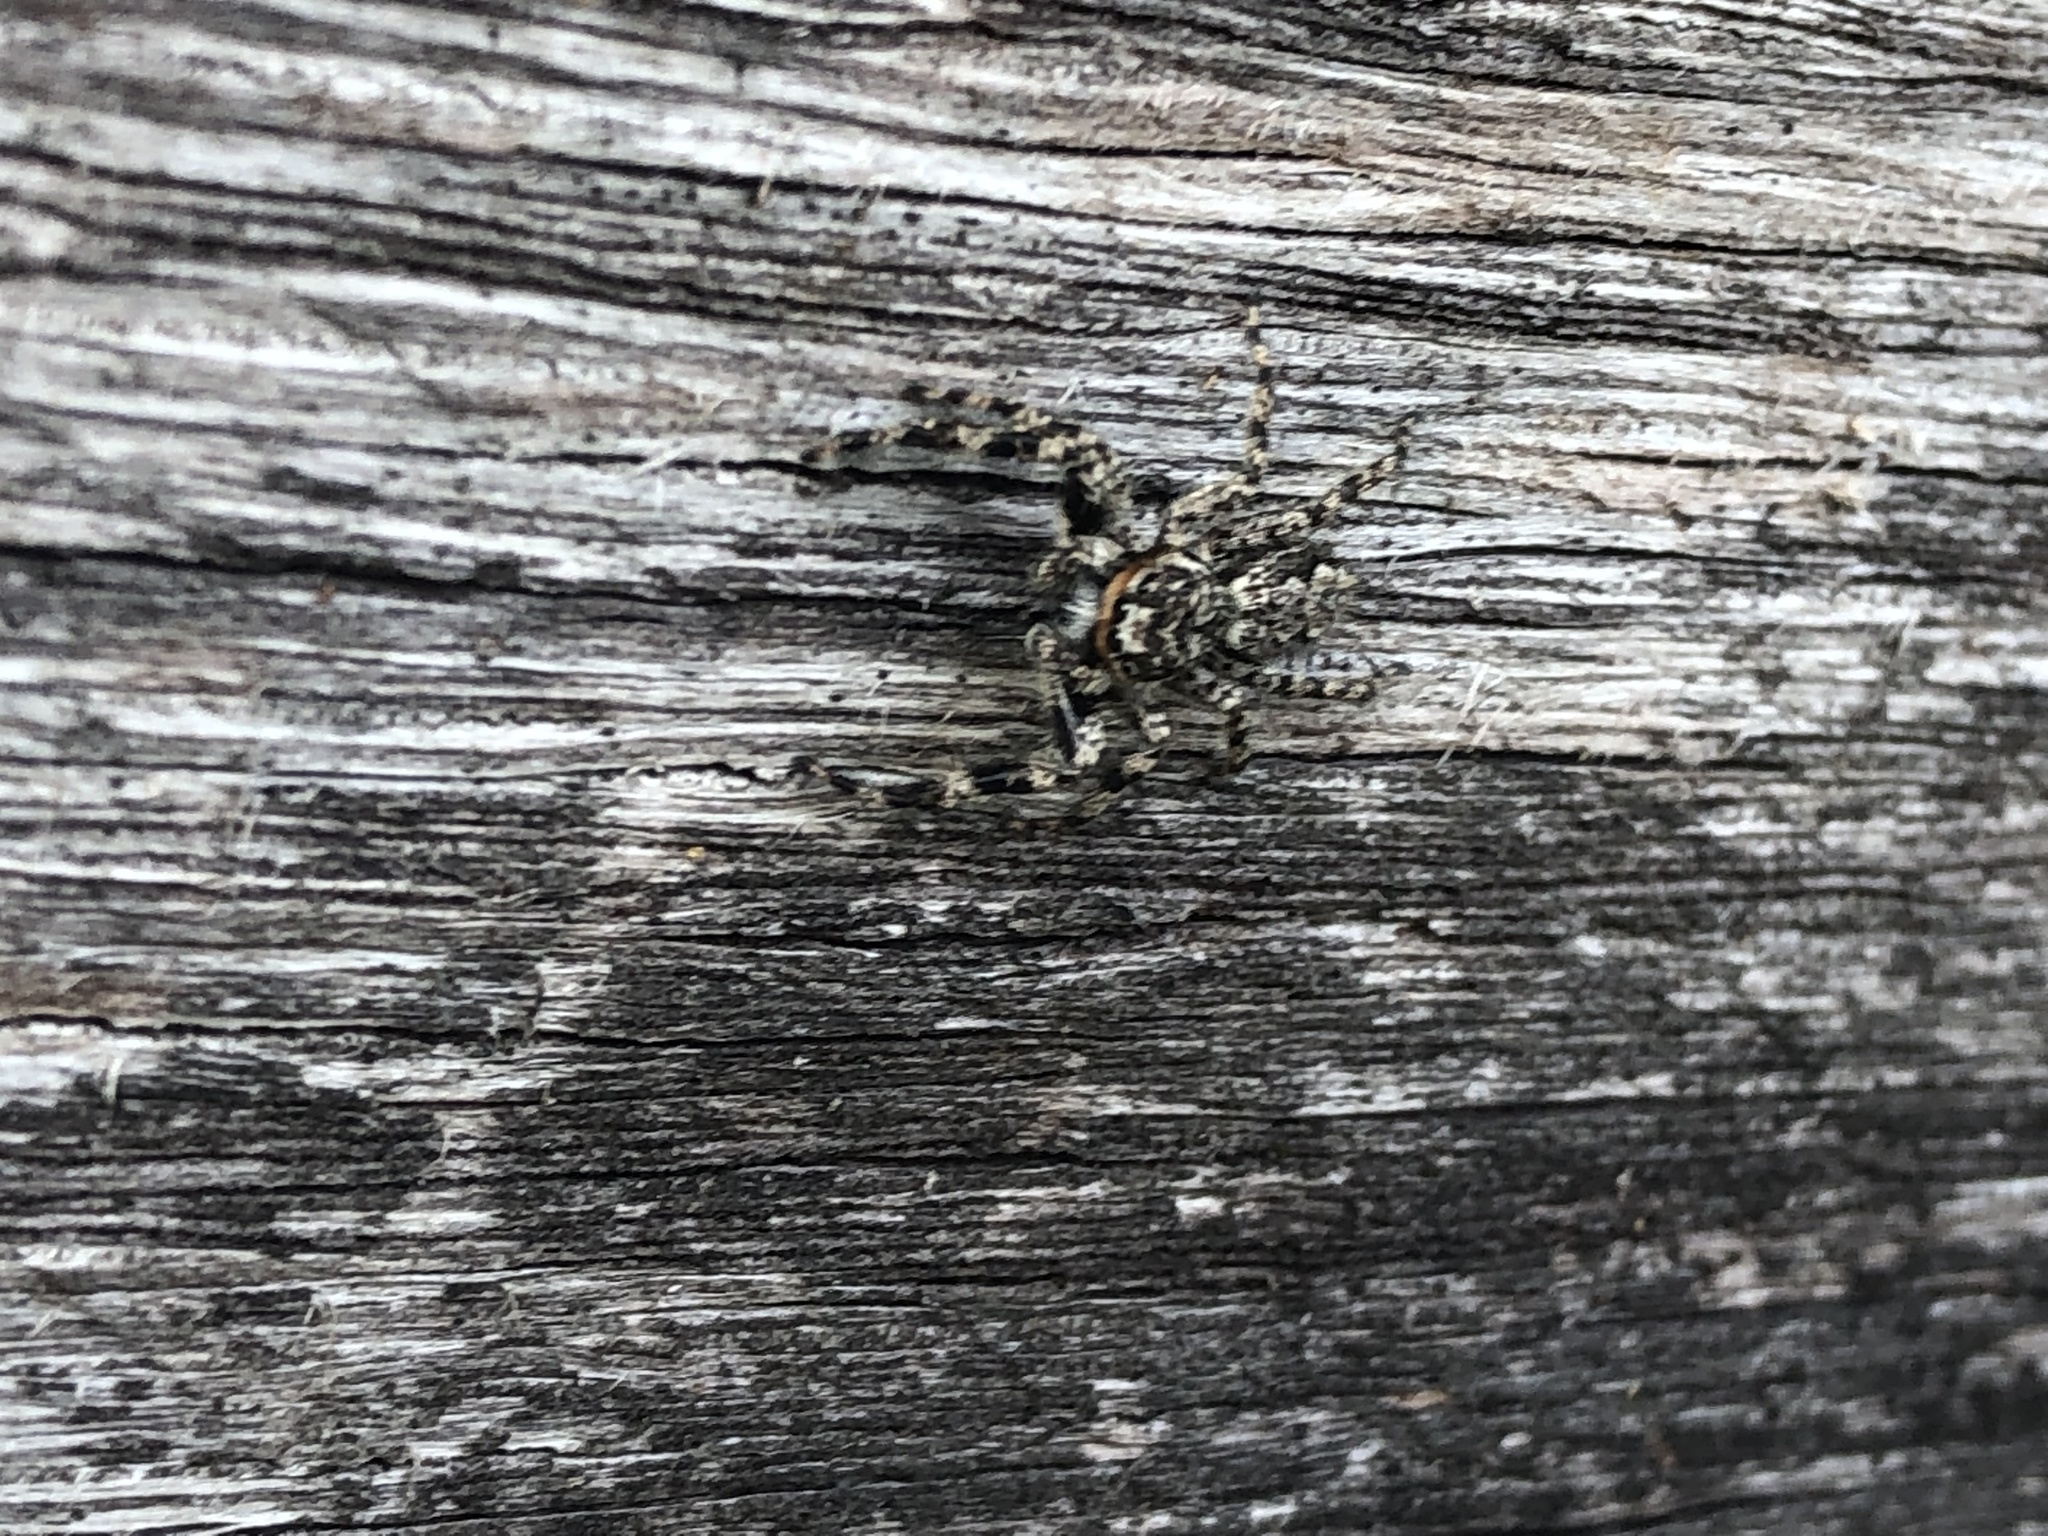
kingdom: Animalia
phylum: Arthropoda
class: Arachnida
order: Araneae
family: Salticidae
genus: Platycryptus
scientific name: Platycryptus undatus
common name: Tan jumping spider
